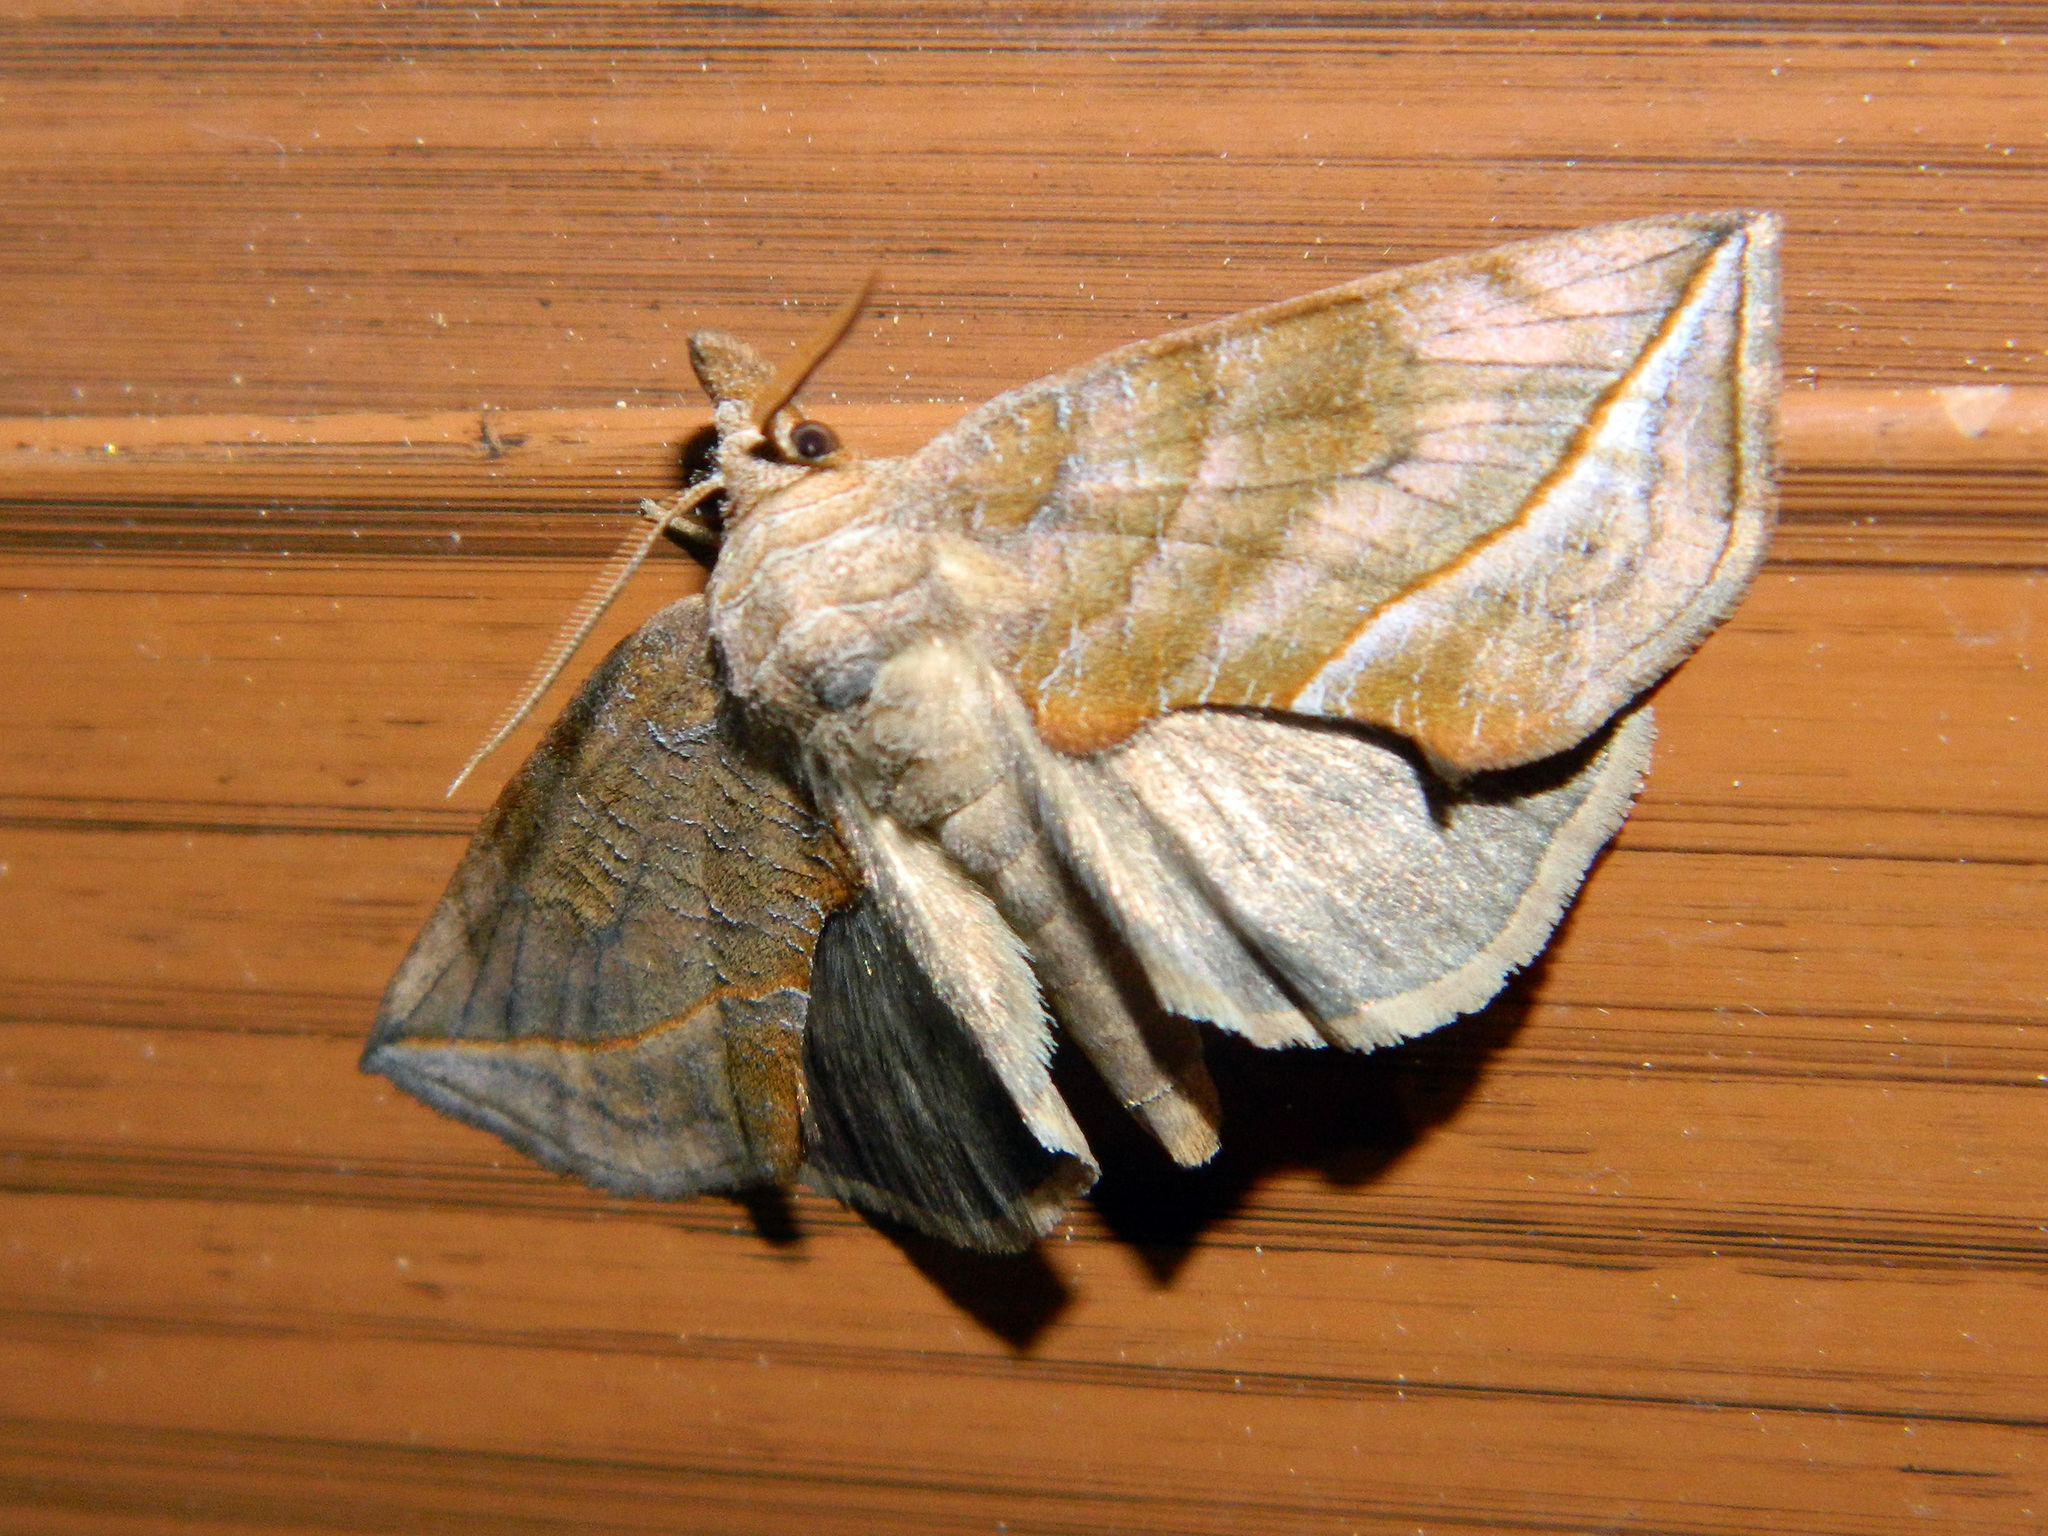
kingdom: Animalia
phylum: Arthropoda
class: Insecta
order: Lepidoptera
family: Erebidae
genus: Calyptra
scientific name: Calyptra canadensis
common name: Canadian owlet
